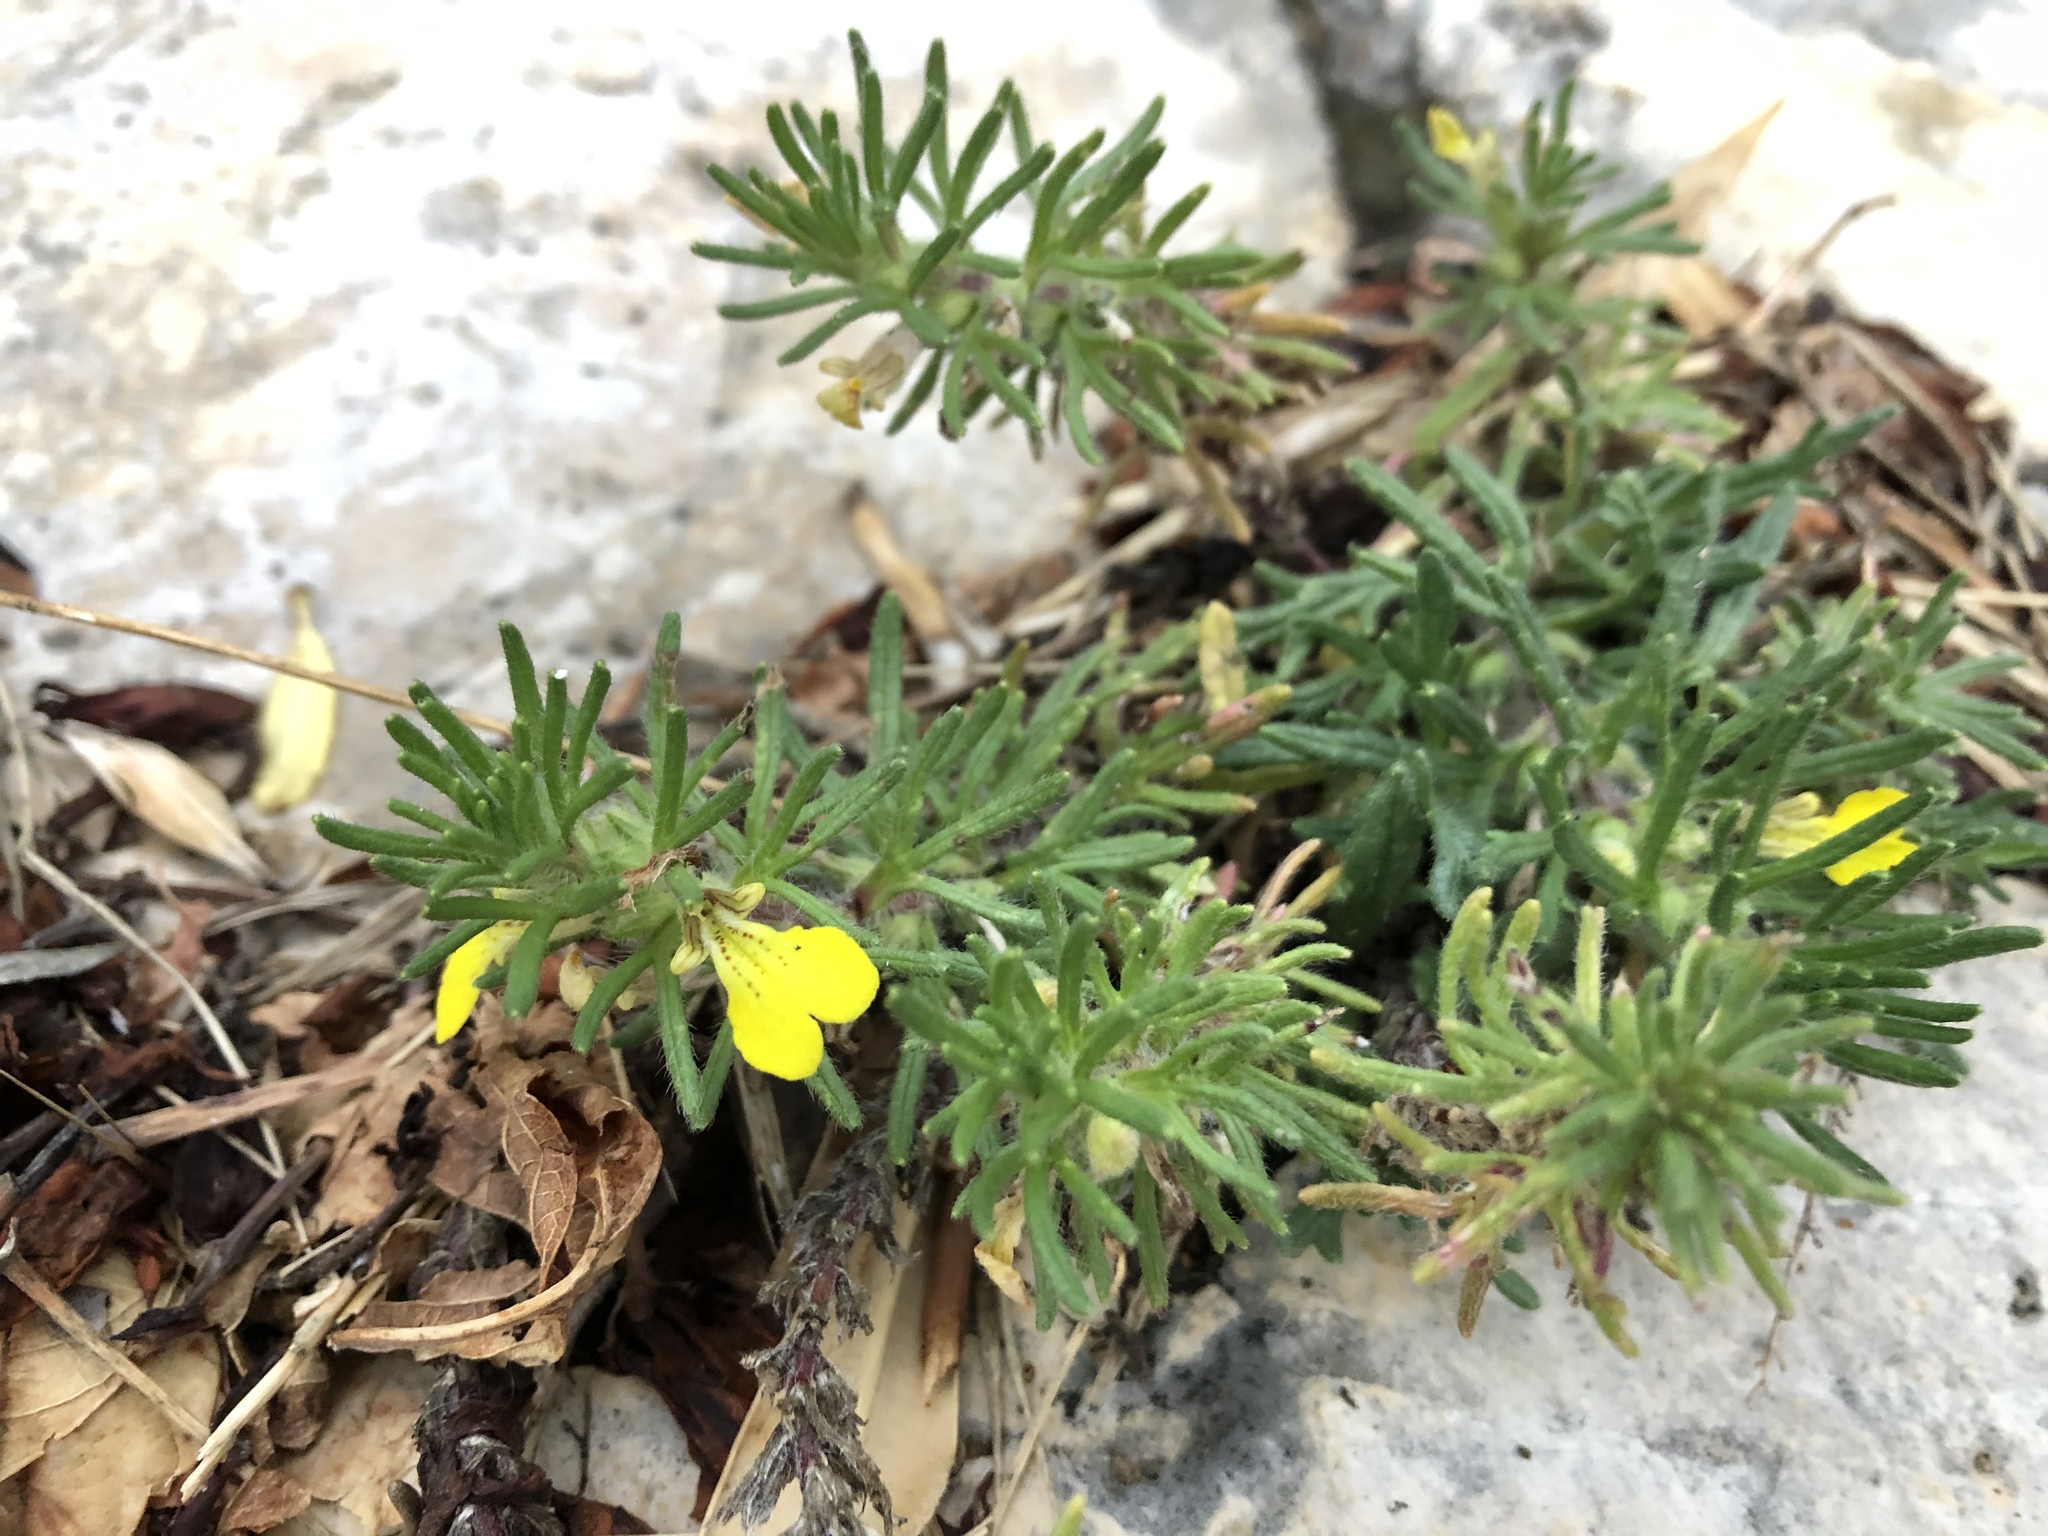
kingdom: Plantae
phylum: Tracheophyta
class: Magnoliopsida
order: Lamiales
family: Lamiaceae
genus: Ajuga
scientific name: Ajuga chamaepitys
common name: Ground-pine
